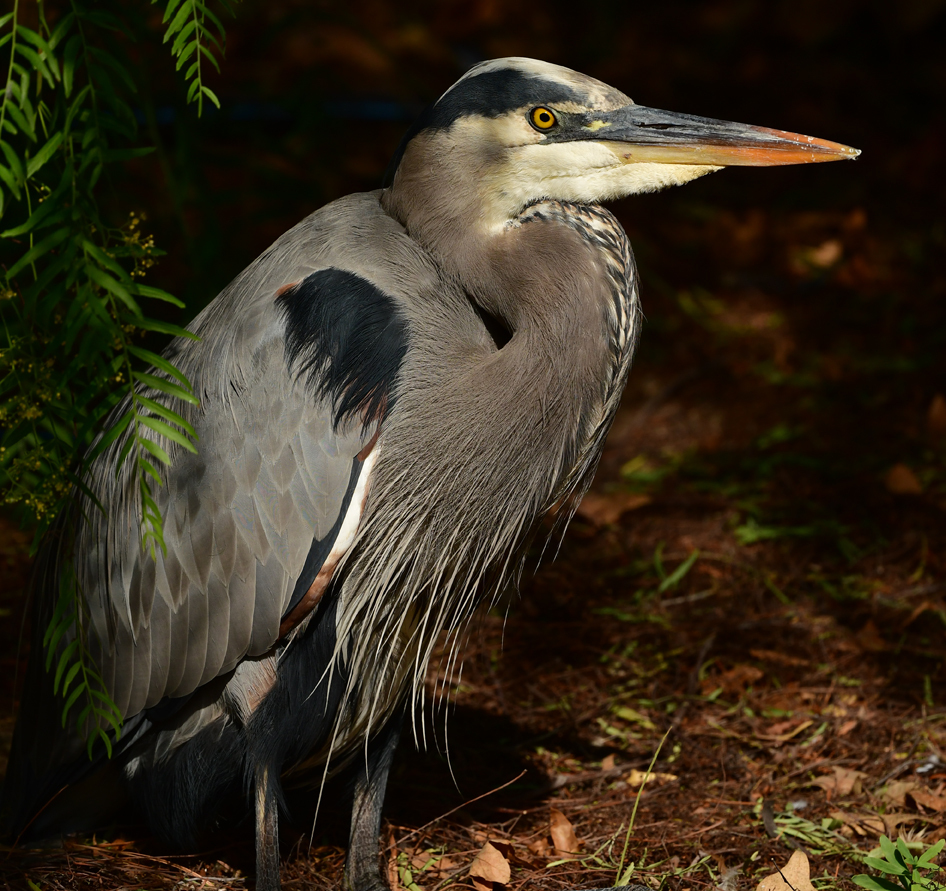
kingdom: Animalia
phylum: Chordata
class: Aves
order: Pelecaniformes
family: Ardeidae
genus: Ardea
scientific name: Ardea herodias
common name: Great blue heron
